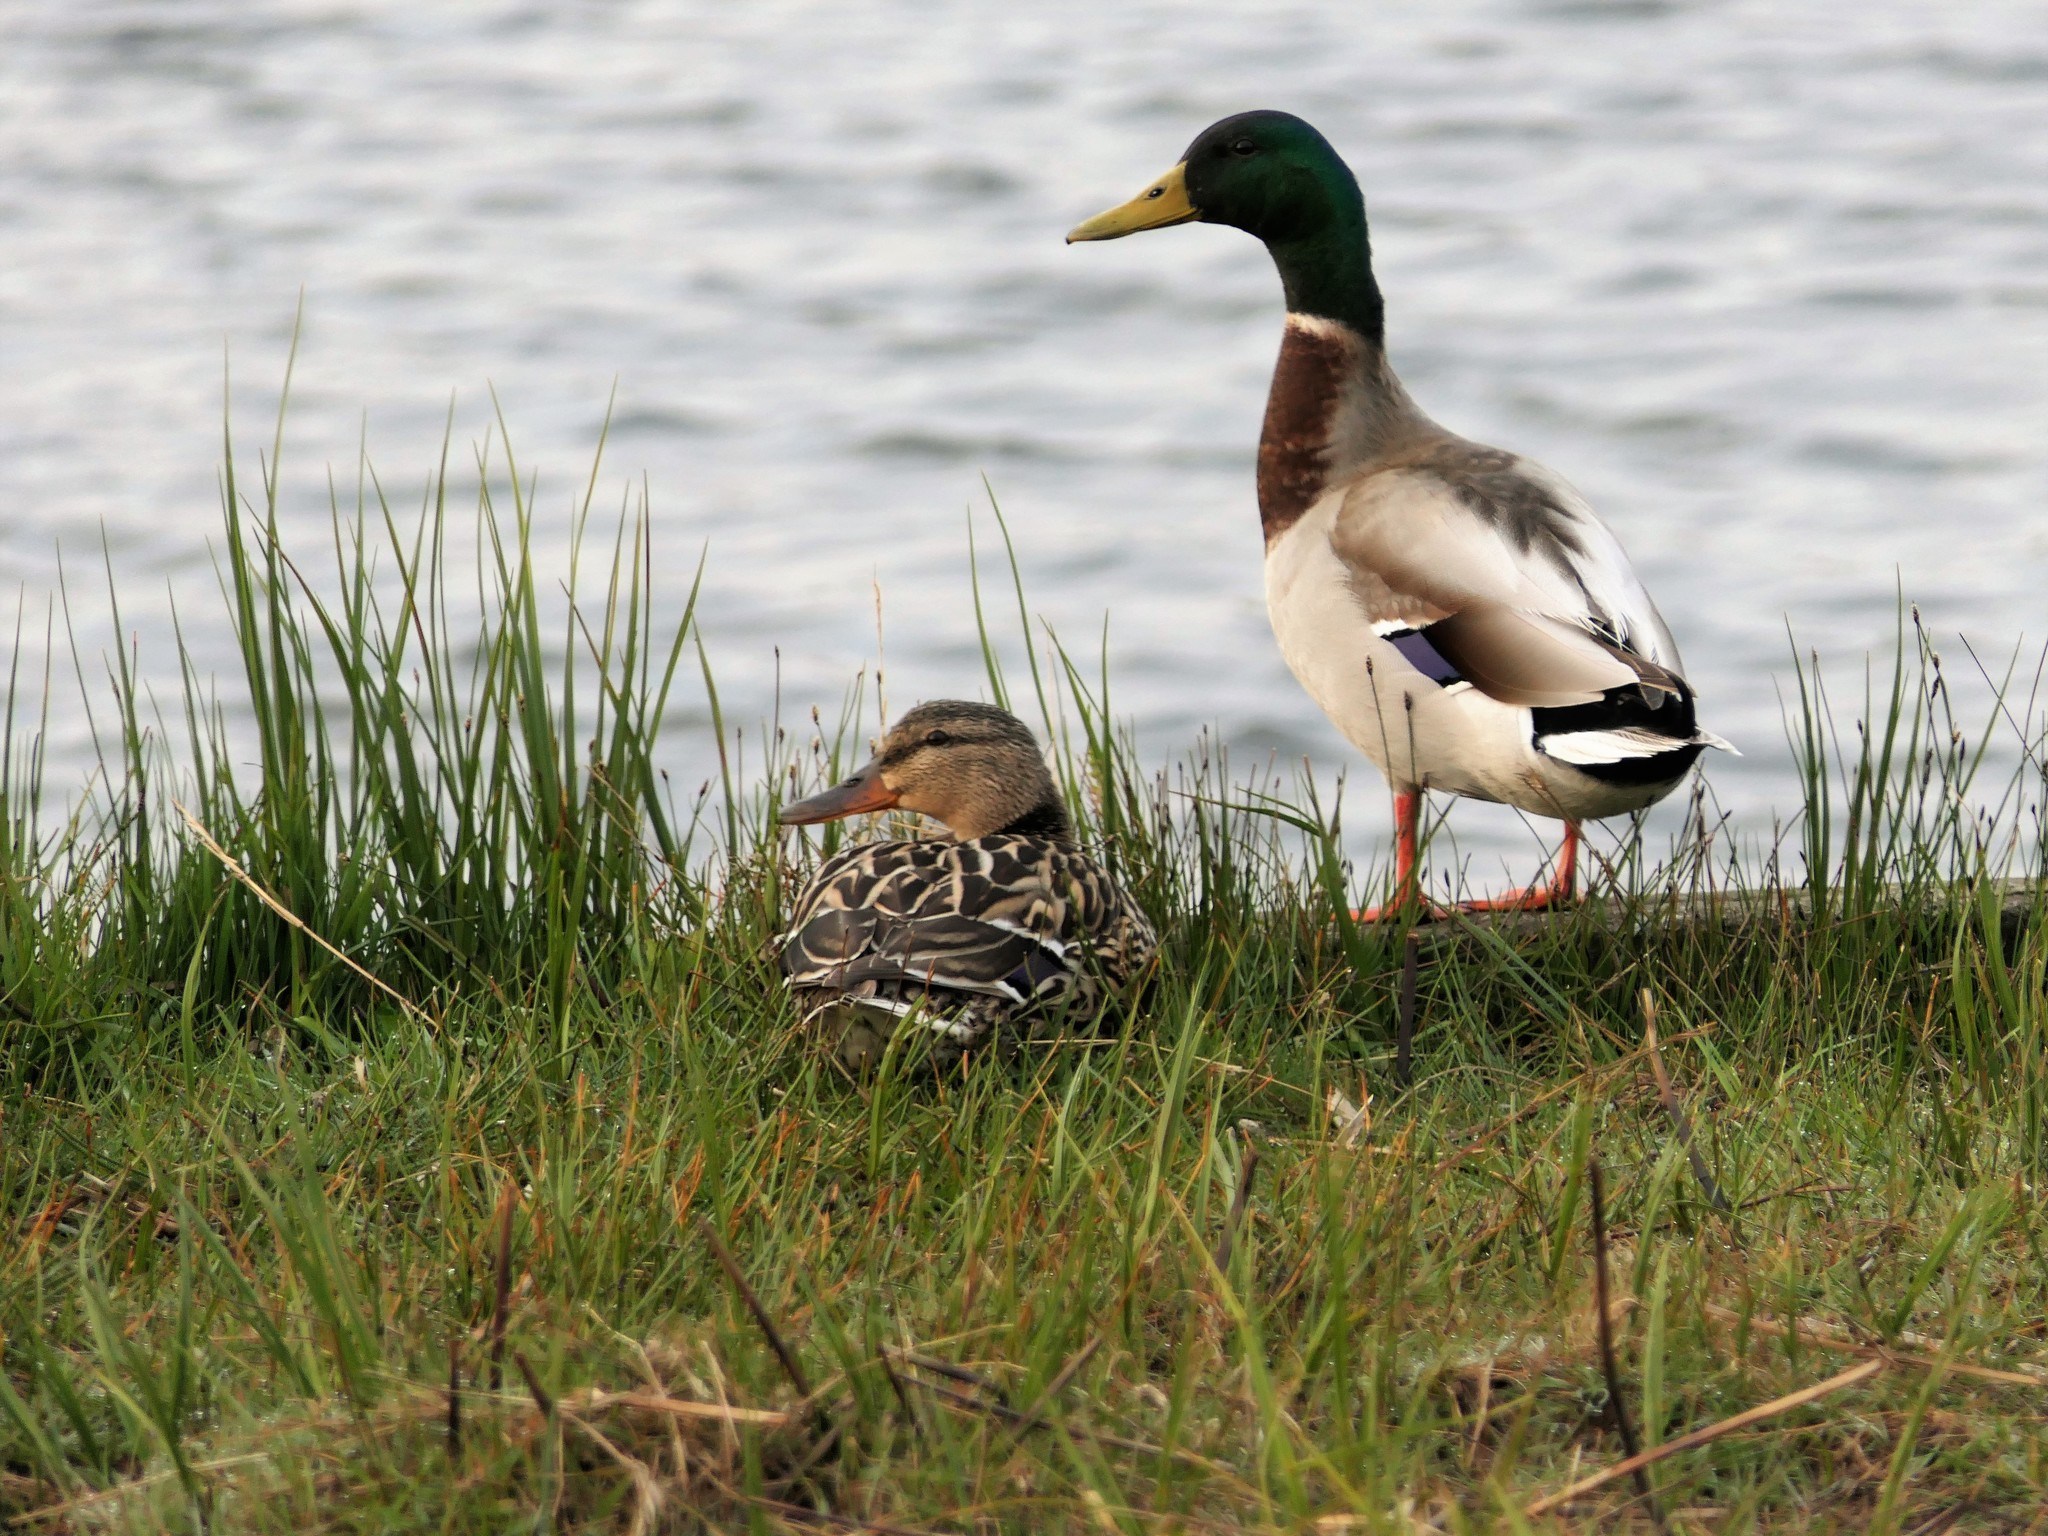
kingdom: Animalia
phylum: Chordata
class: Aves
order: Anseriformes
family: Anatidae
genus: Anas
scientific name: Anas platyrhynchos
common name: Mallard
